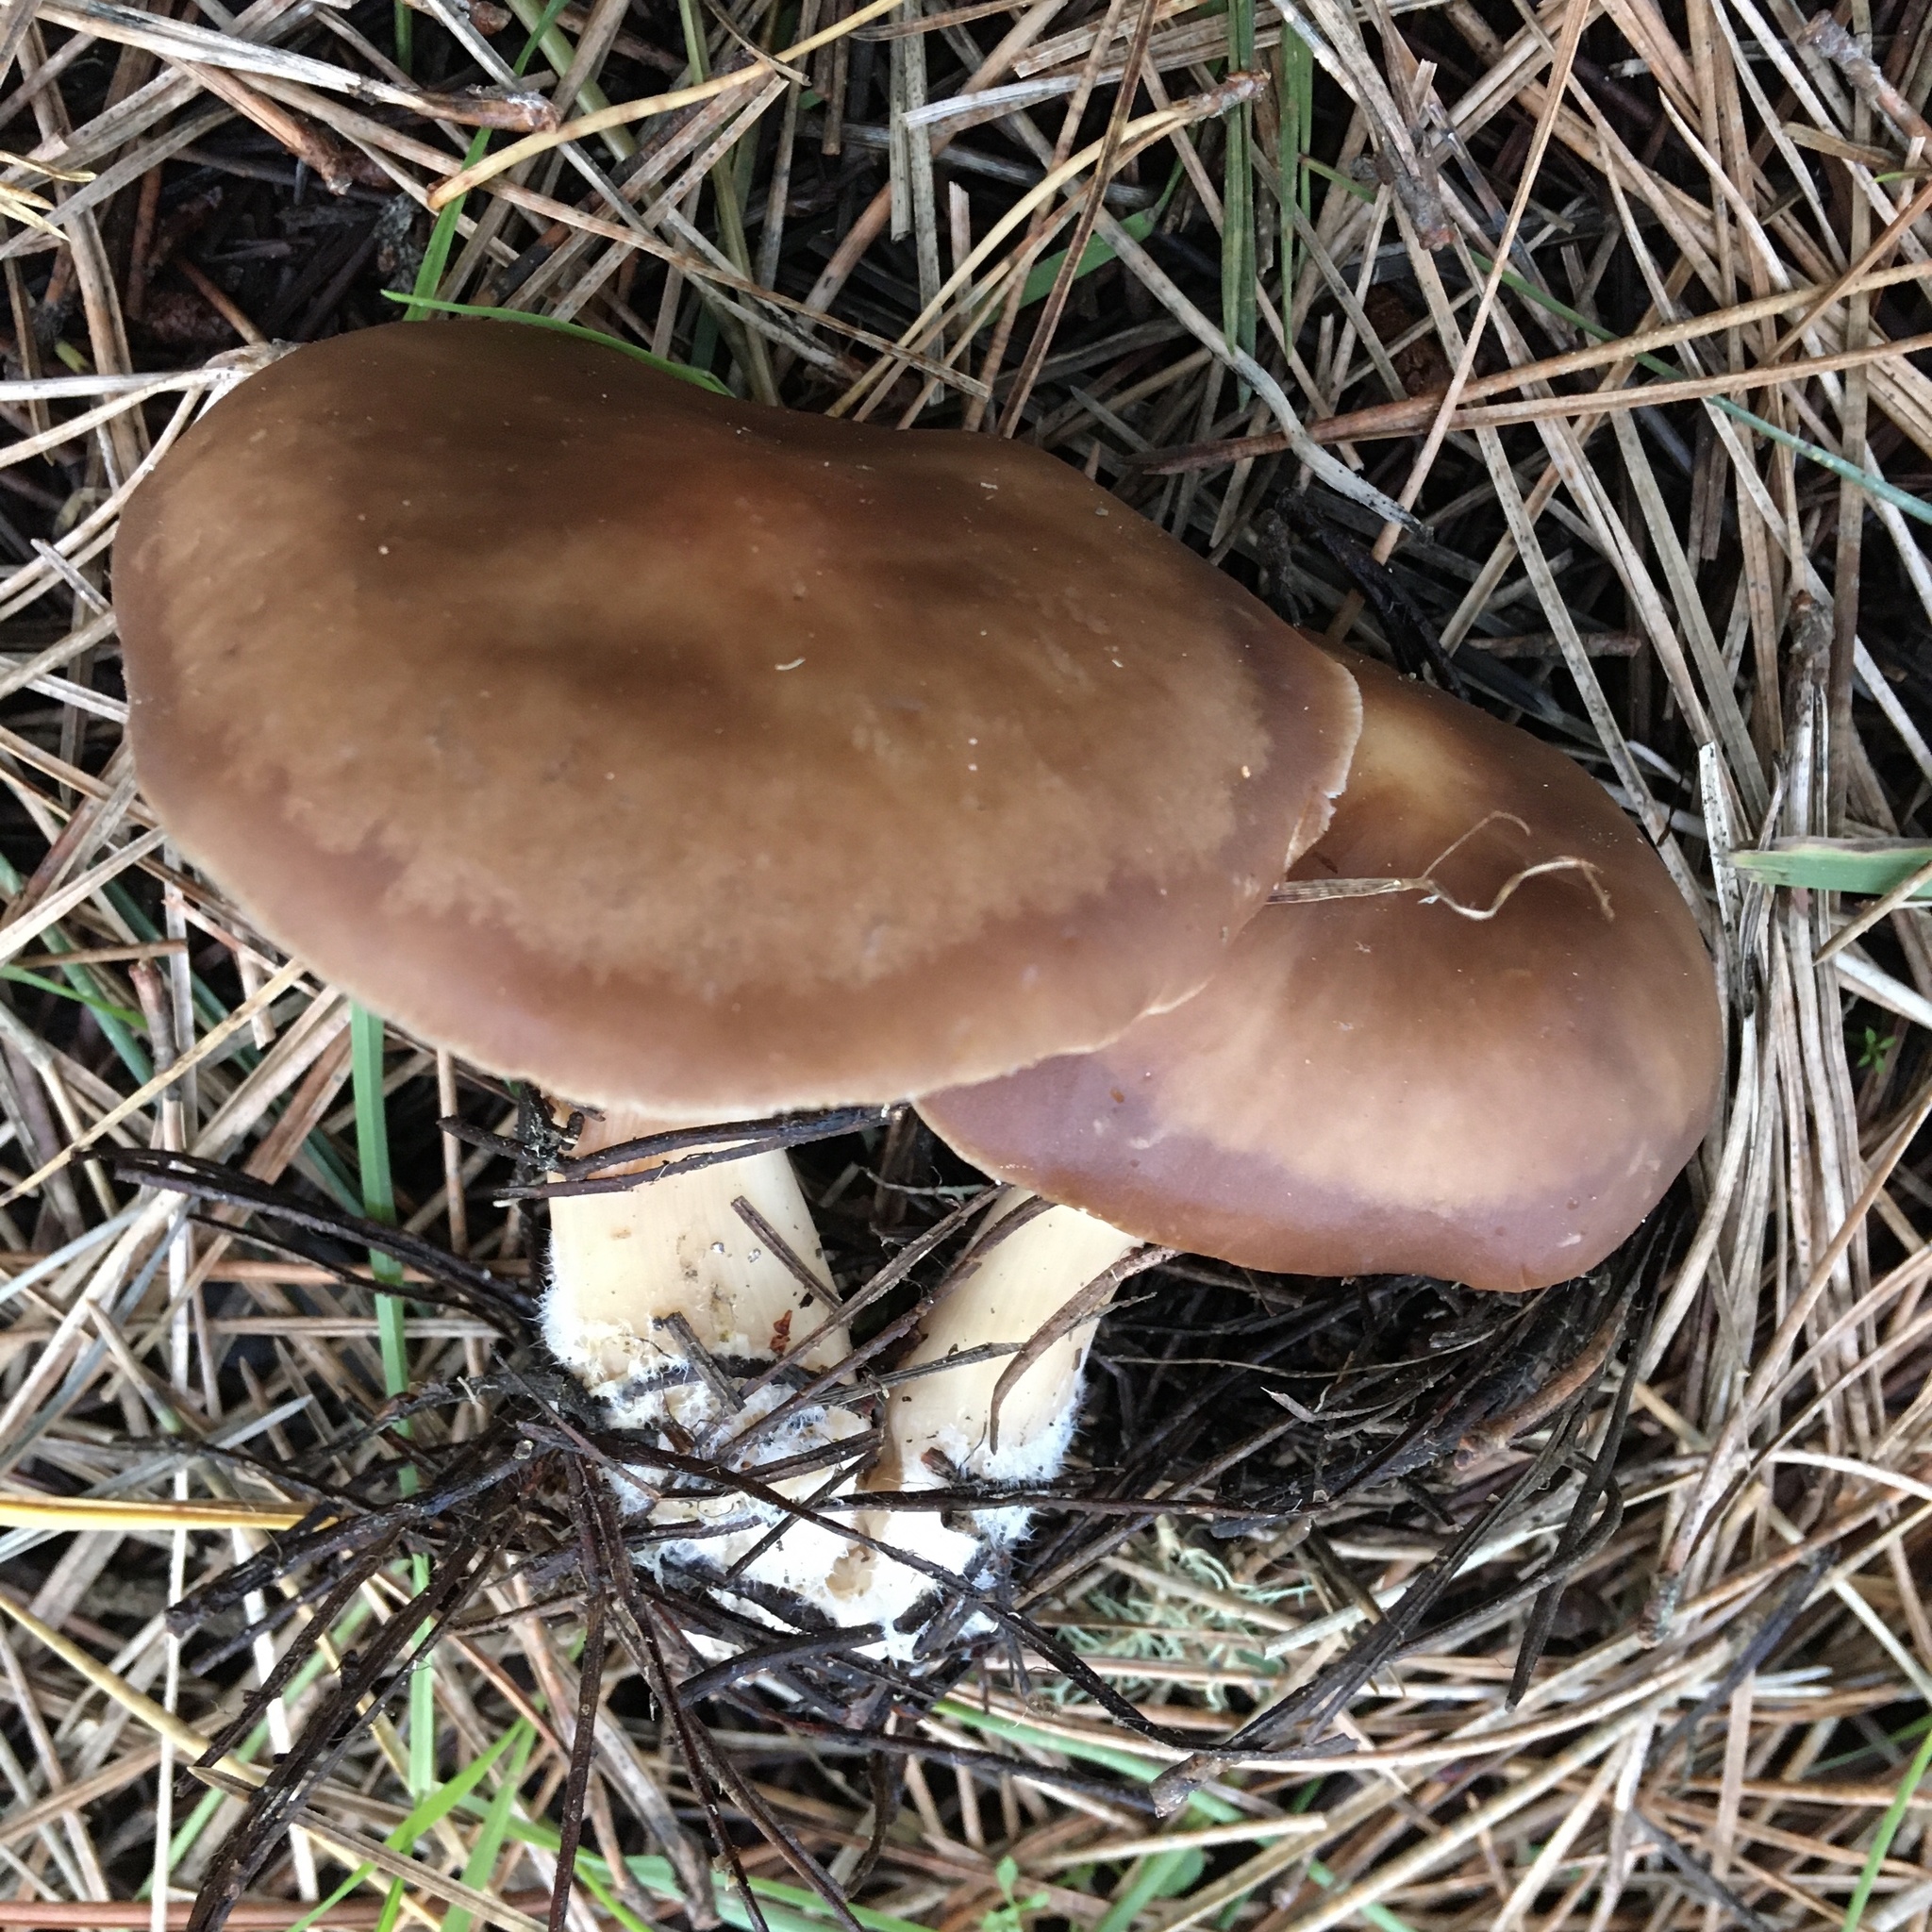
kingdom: Fungi
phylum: Basidiomycota
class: Agaricomycetes
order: Agaricales
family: Omphalotaceae
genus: Rhodocollybia
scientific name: Rhodocollybia badiialba
